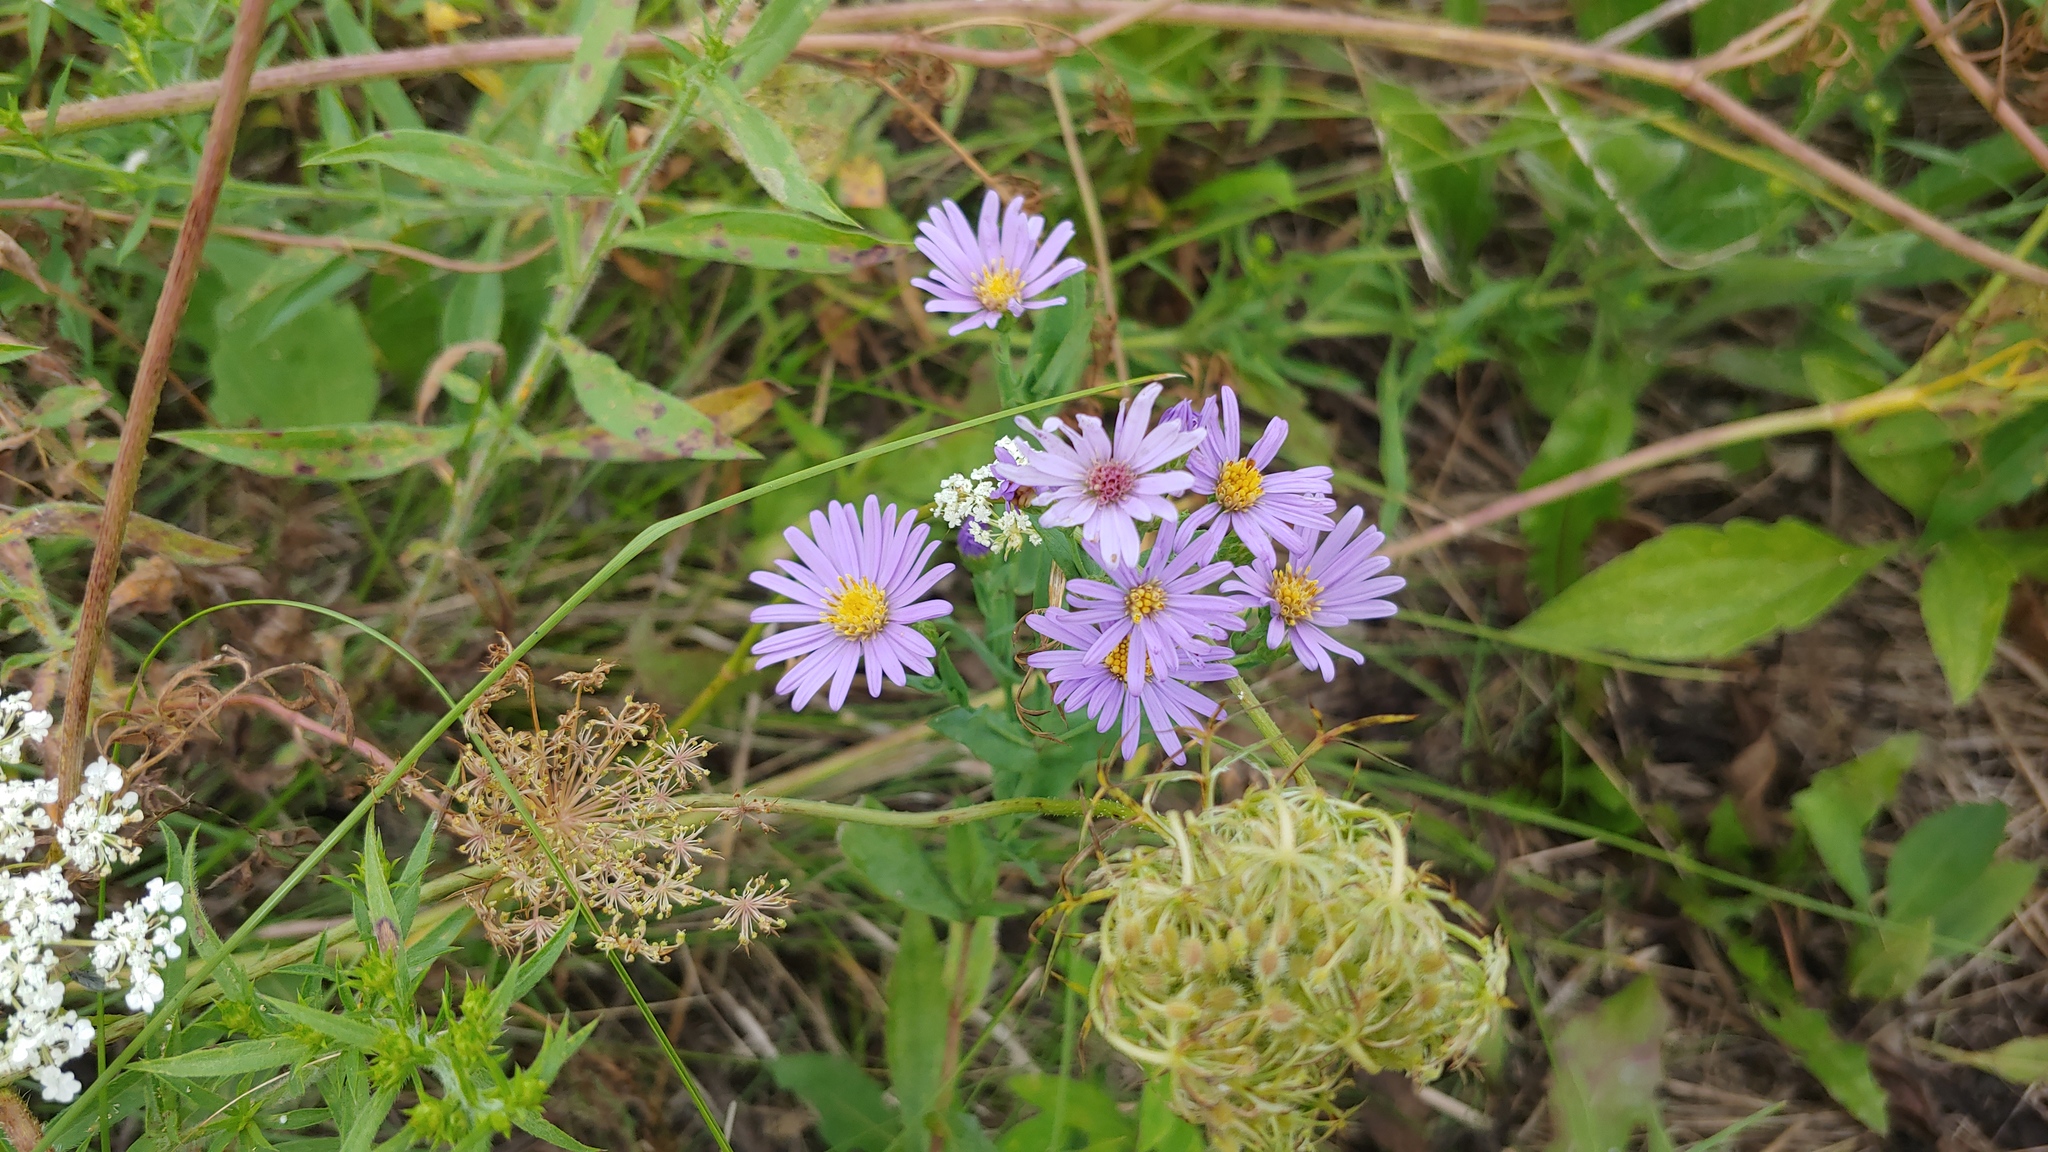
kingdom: Plantae
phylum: Tracheophyta
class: Magnoliopsida
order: Asterales
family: Asteraceae
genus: Symphyotrichum
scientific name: Symphyotrichum novae-angliae
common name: Michaelmas daisy
